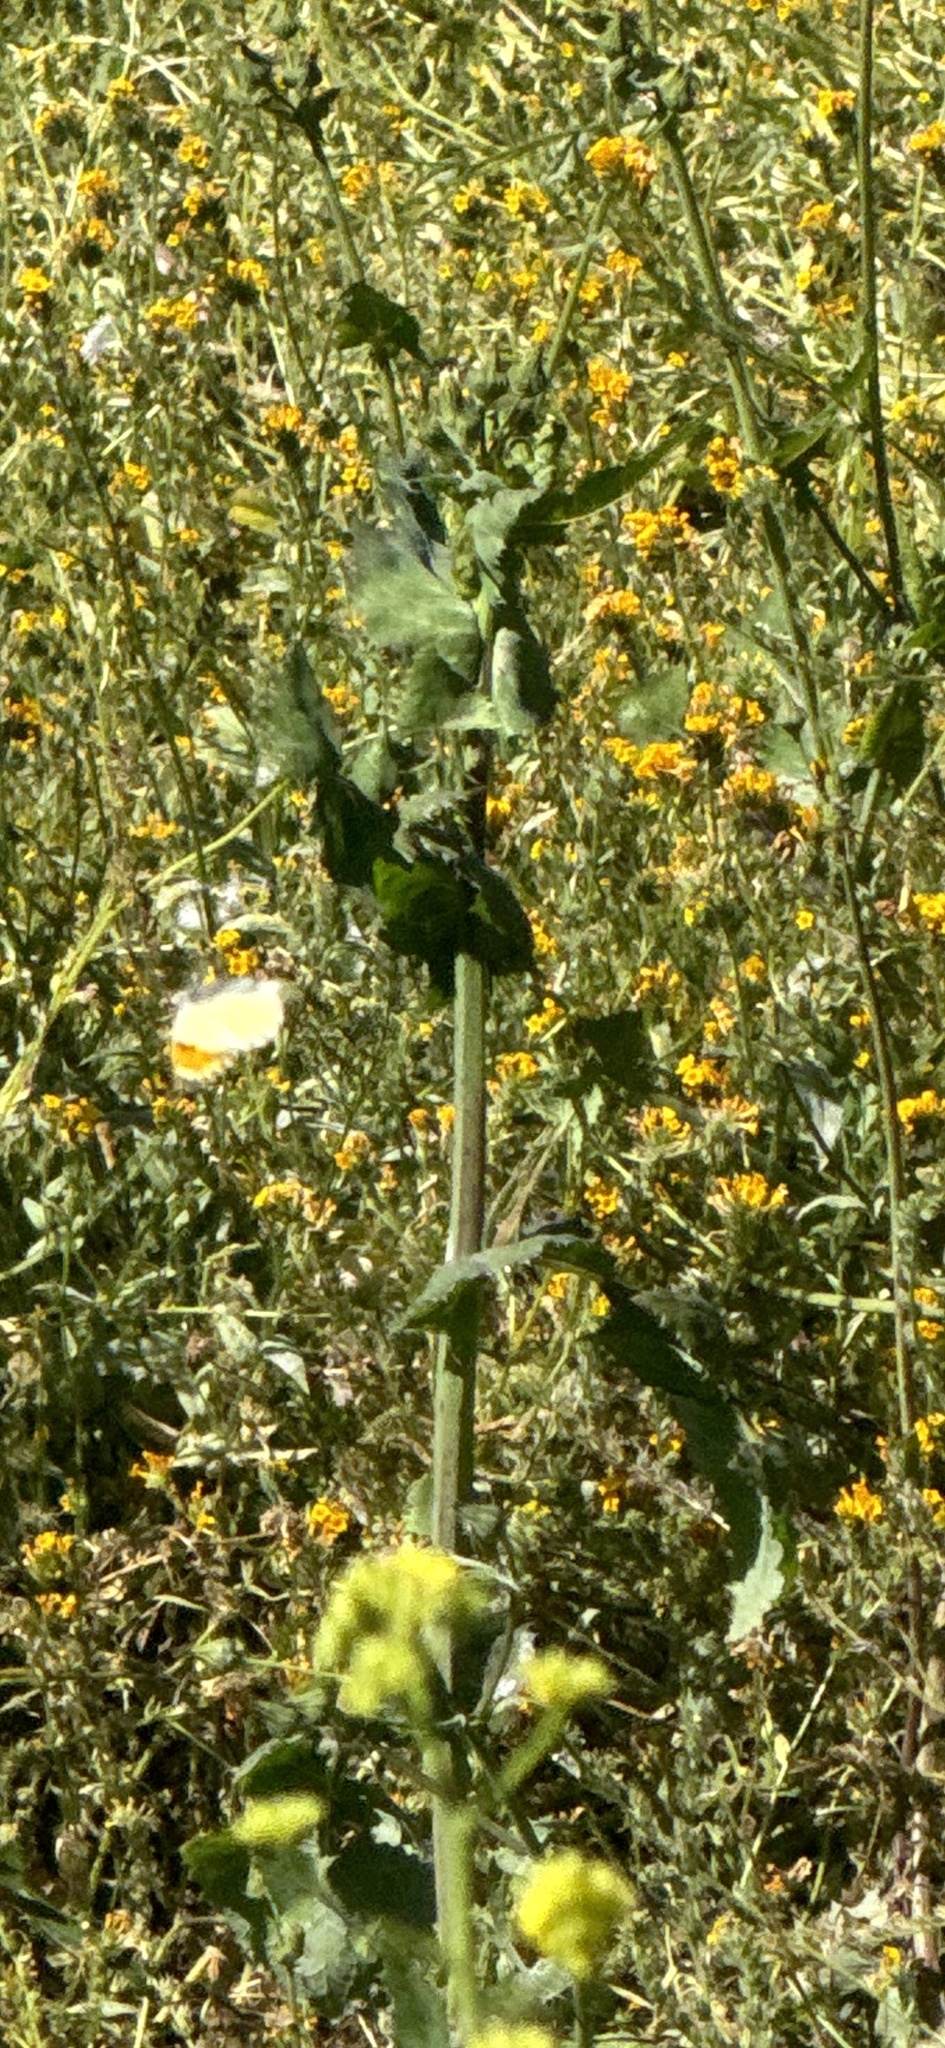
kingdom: Animalia
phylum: Arthropoda
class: Insecta
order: Lepidoptera
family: Pieridae
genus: Anthocharis
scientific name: Anthocharis sara
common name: Sara's orangetip
